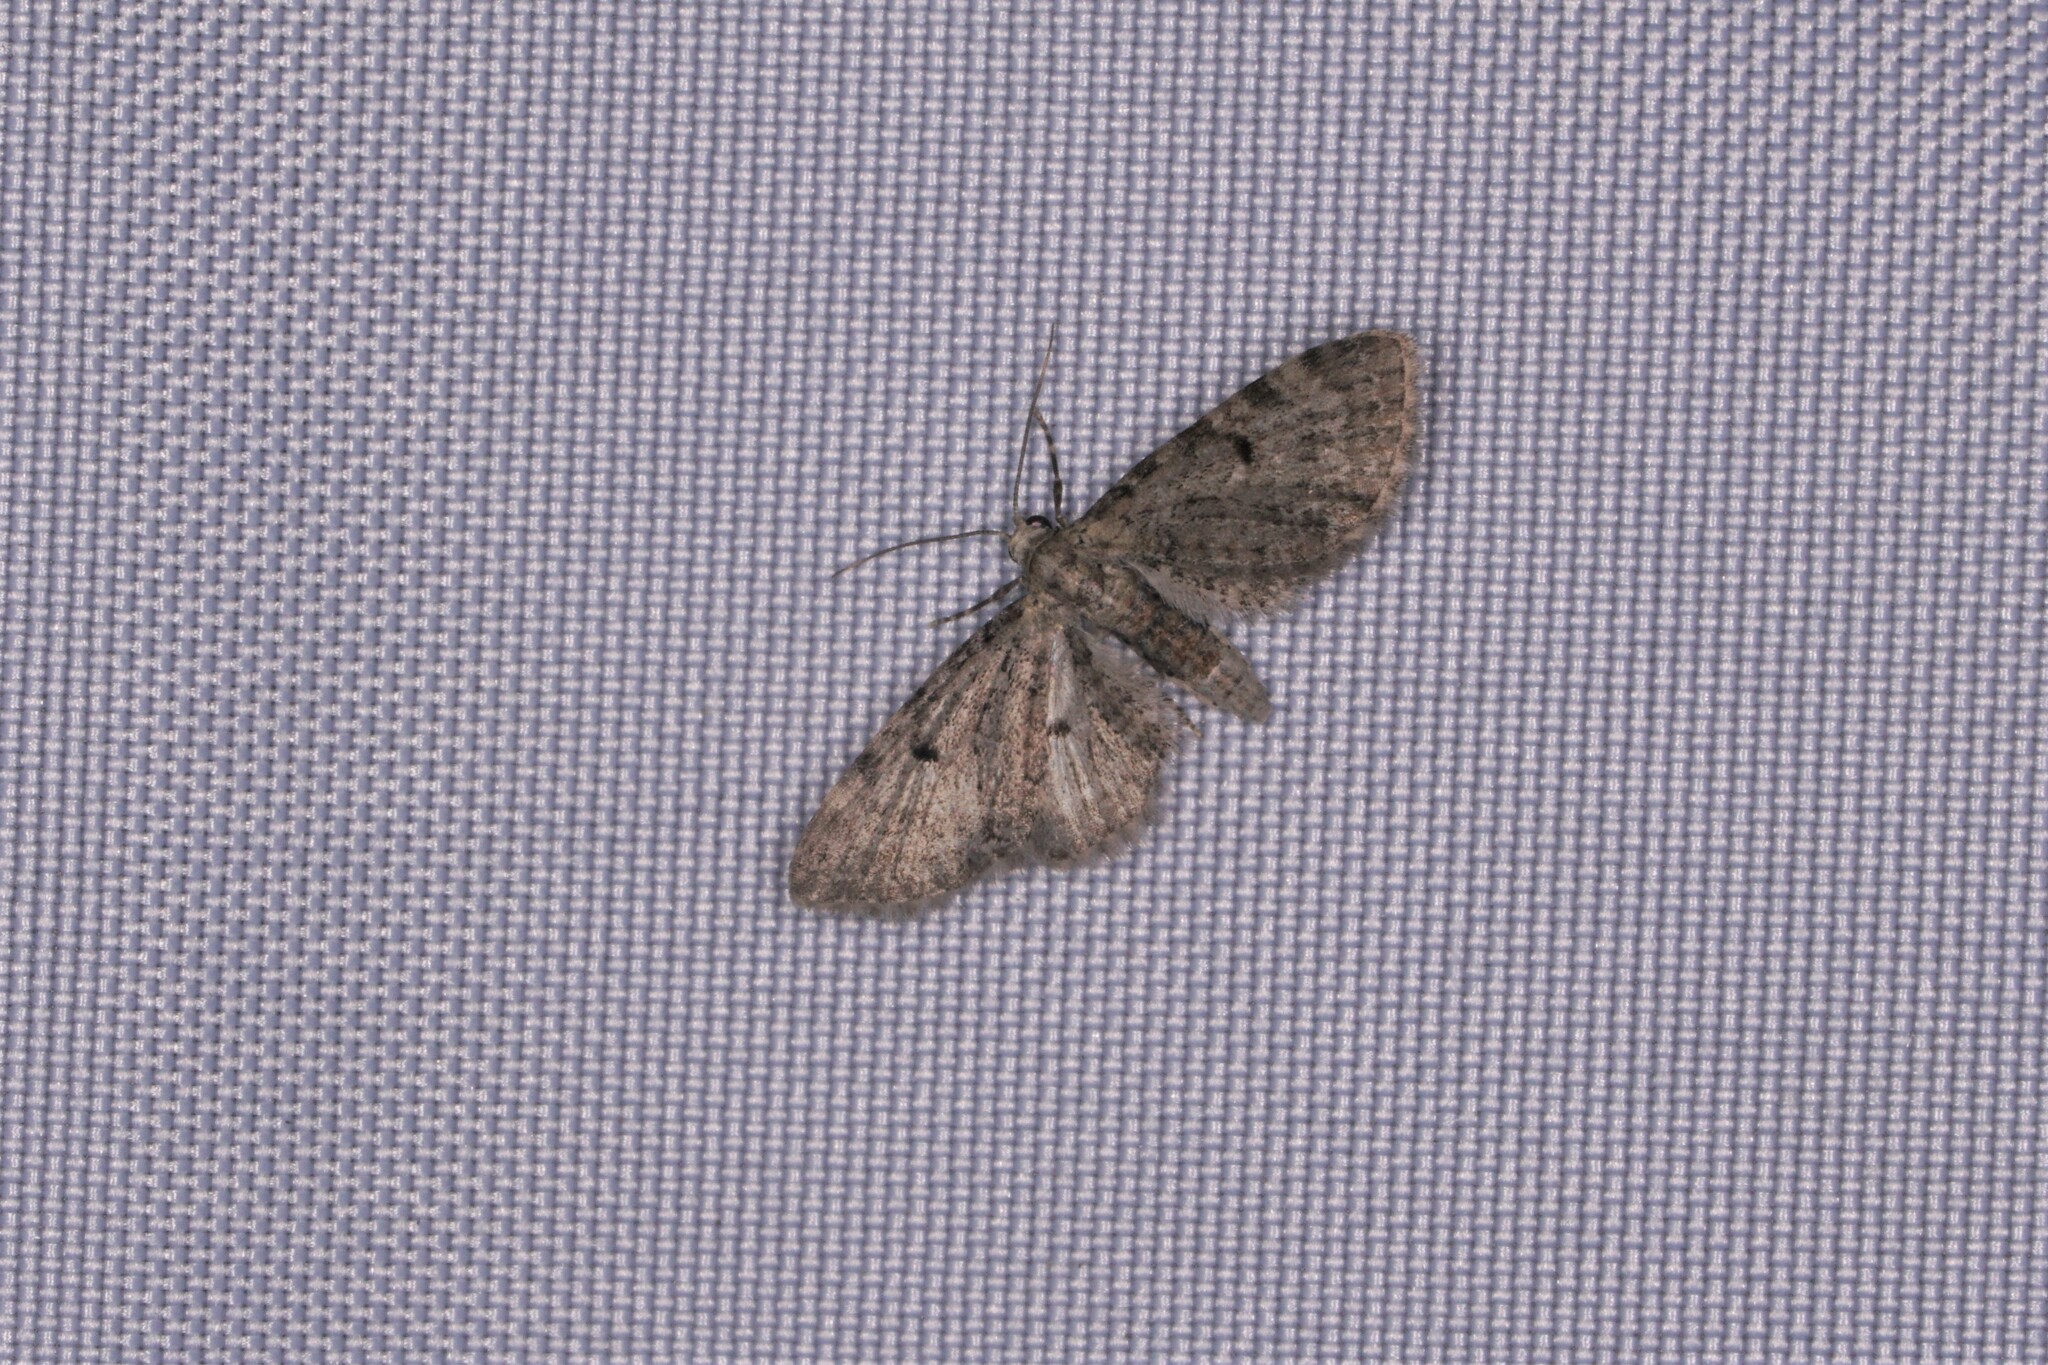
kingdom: Animalia
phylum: Arthropoda
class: Insecta
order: Lepidoptera
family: Geometridae
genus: Eupithecia
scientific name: Eupithecia miserulata
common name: Common eupithecia
